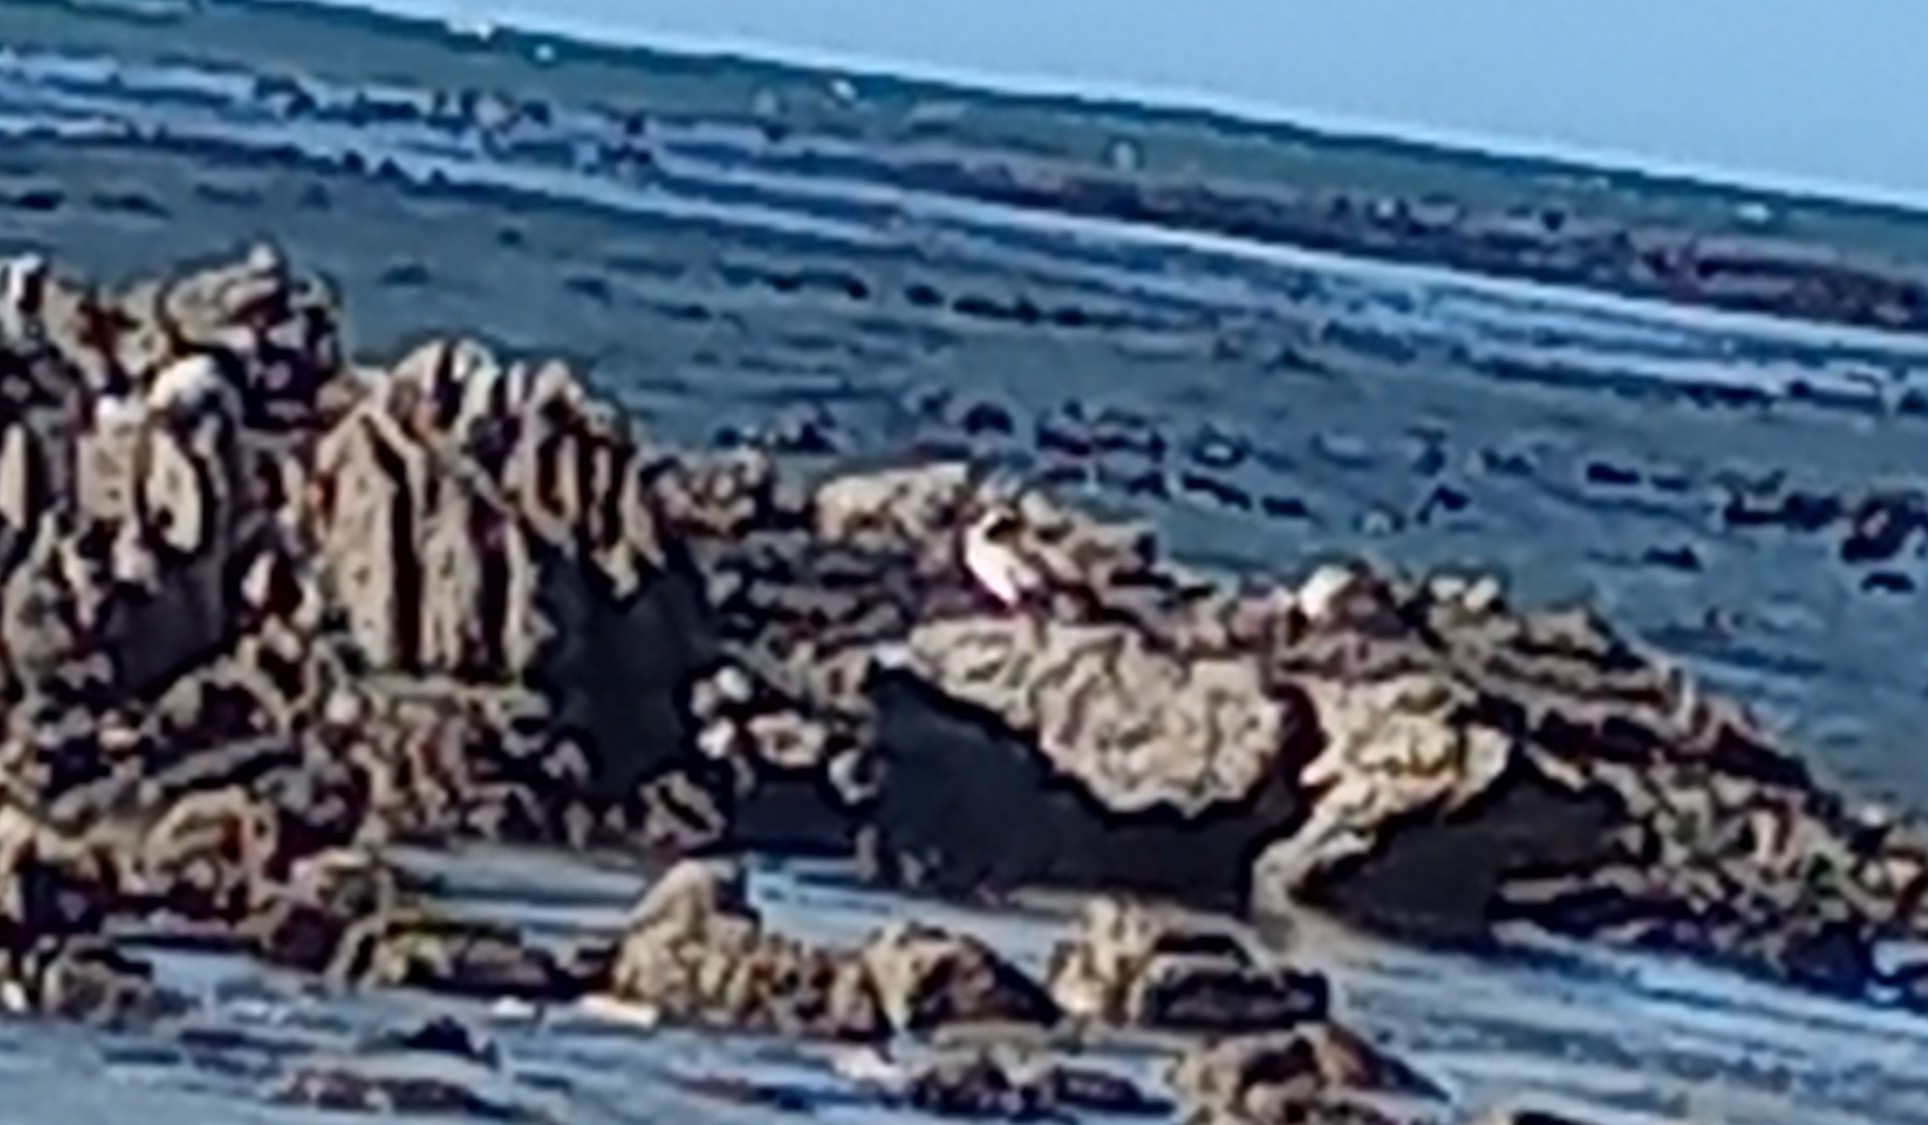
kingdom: Animalia
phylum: Chordata
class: Aves
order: Anseriformes
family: Anatidae
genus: Alopochen
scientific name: Alopochen aegyptiaca
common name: Egyptian goose
